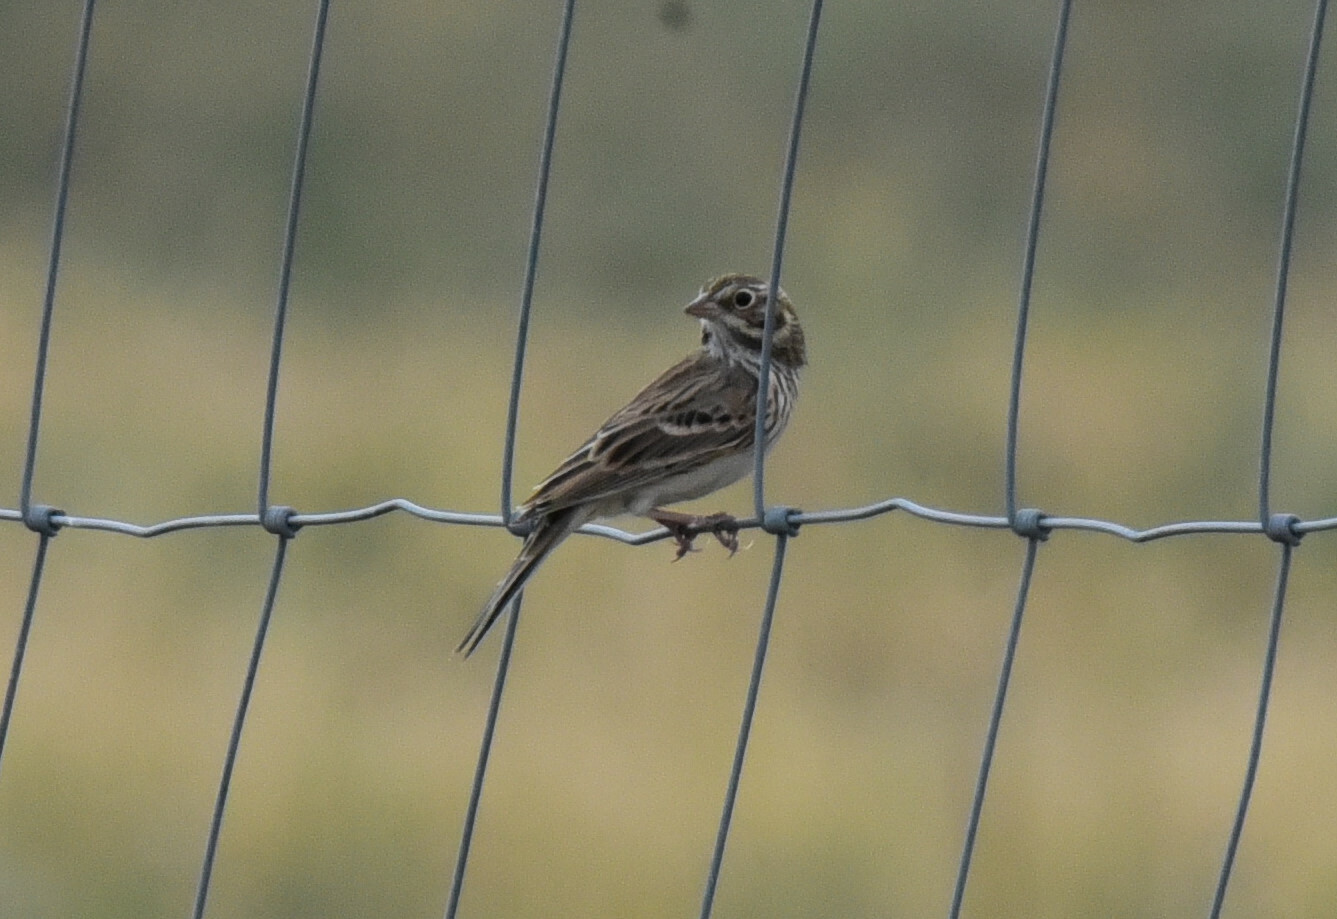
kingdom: Animalia
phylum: Chordata
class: Aves
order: Passeriformes
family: Passerellidae
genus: Pooecetes
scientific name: Pooecetes gramineus
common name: Vesper sparrow
